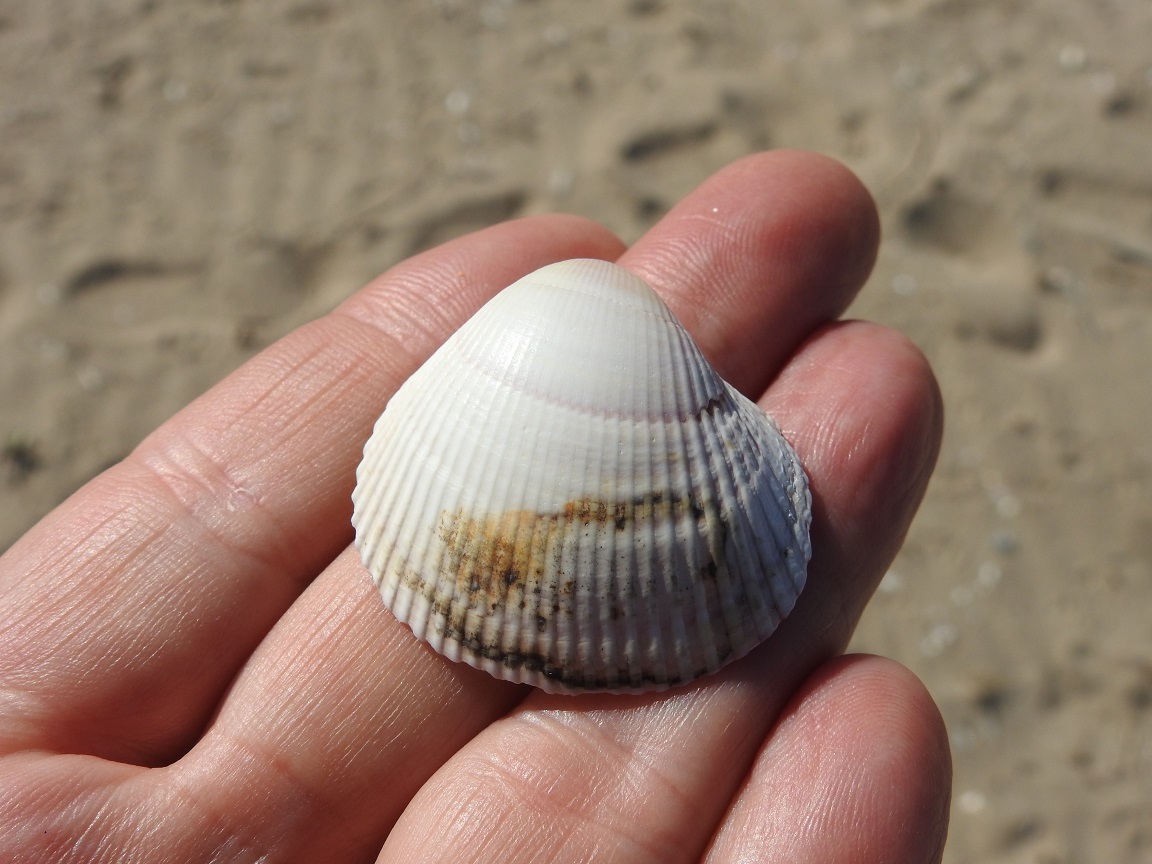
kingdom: Animalia
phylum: Mollusca
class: Bivalvia
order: Cardiida
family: Cardiidae
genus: Fulvia
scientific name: Fulvia fragilis
